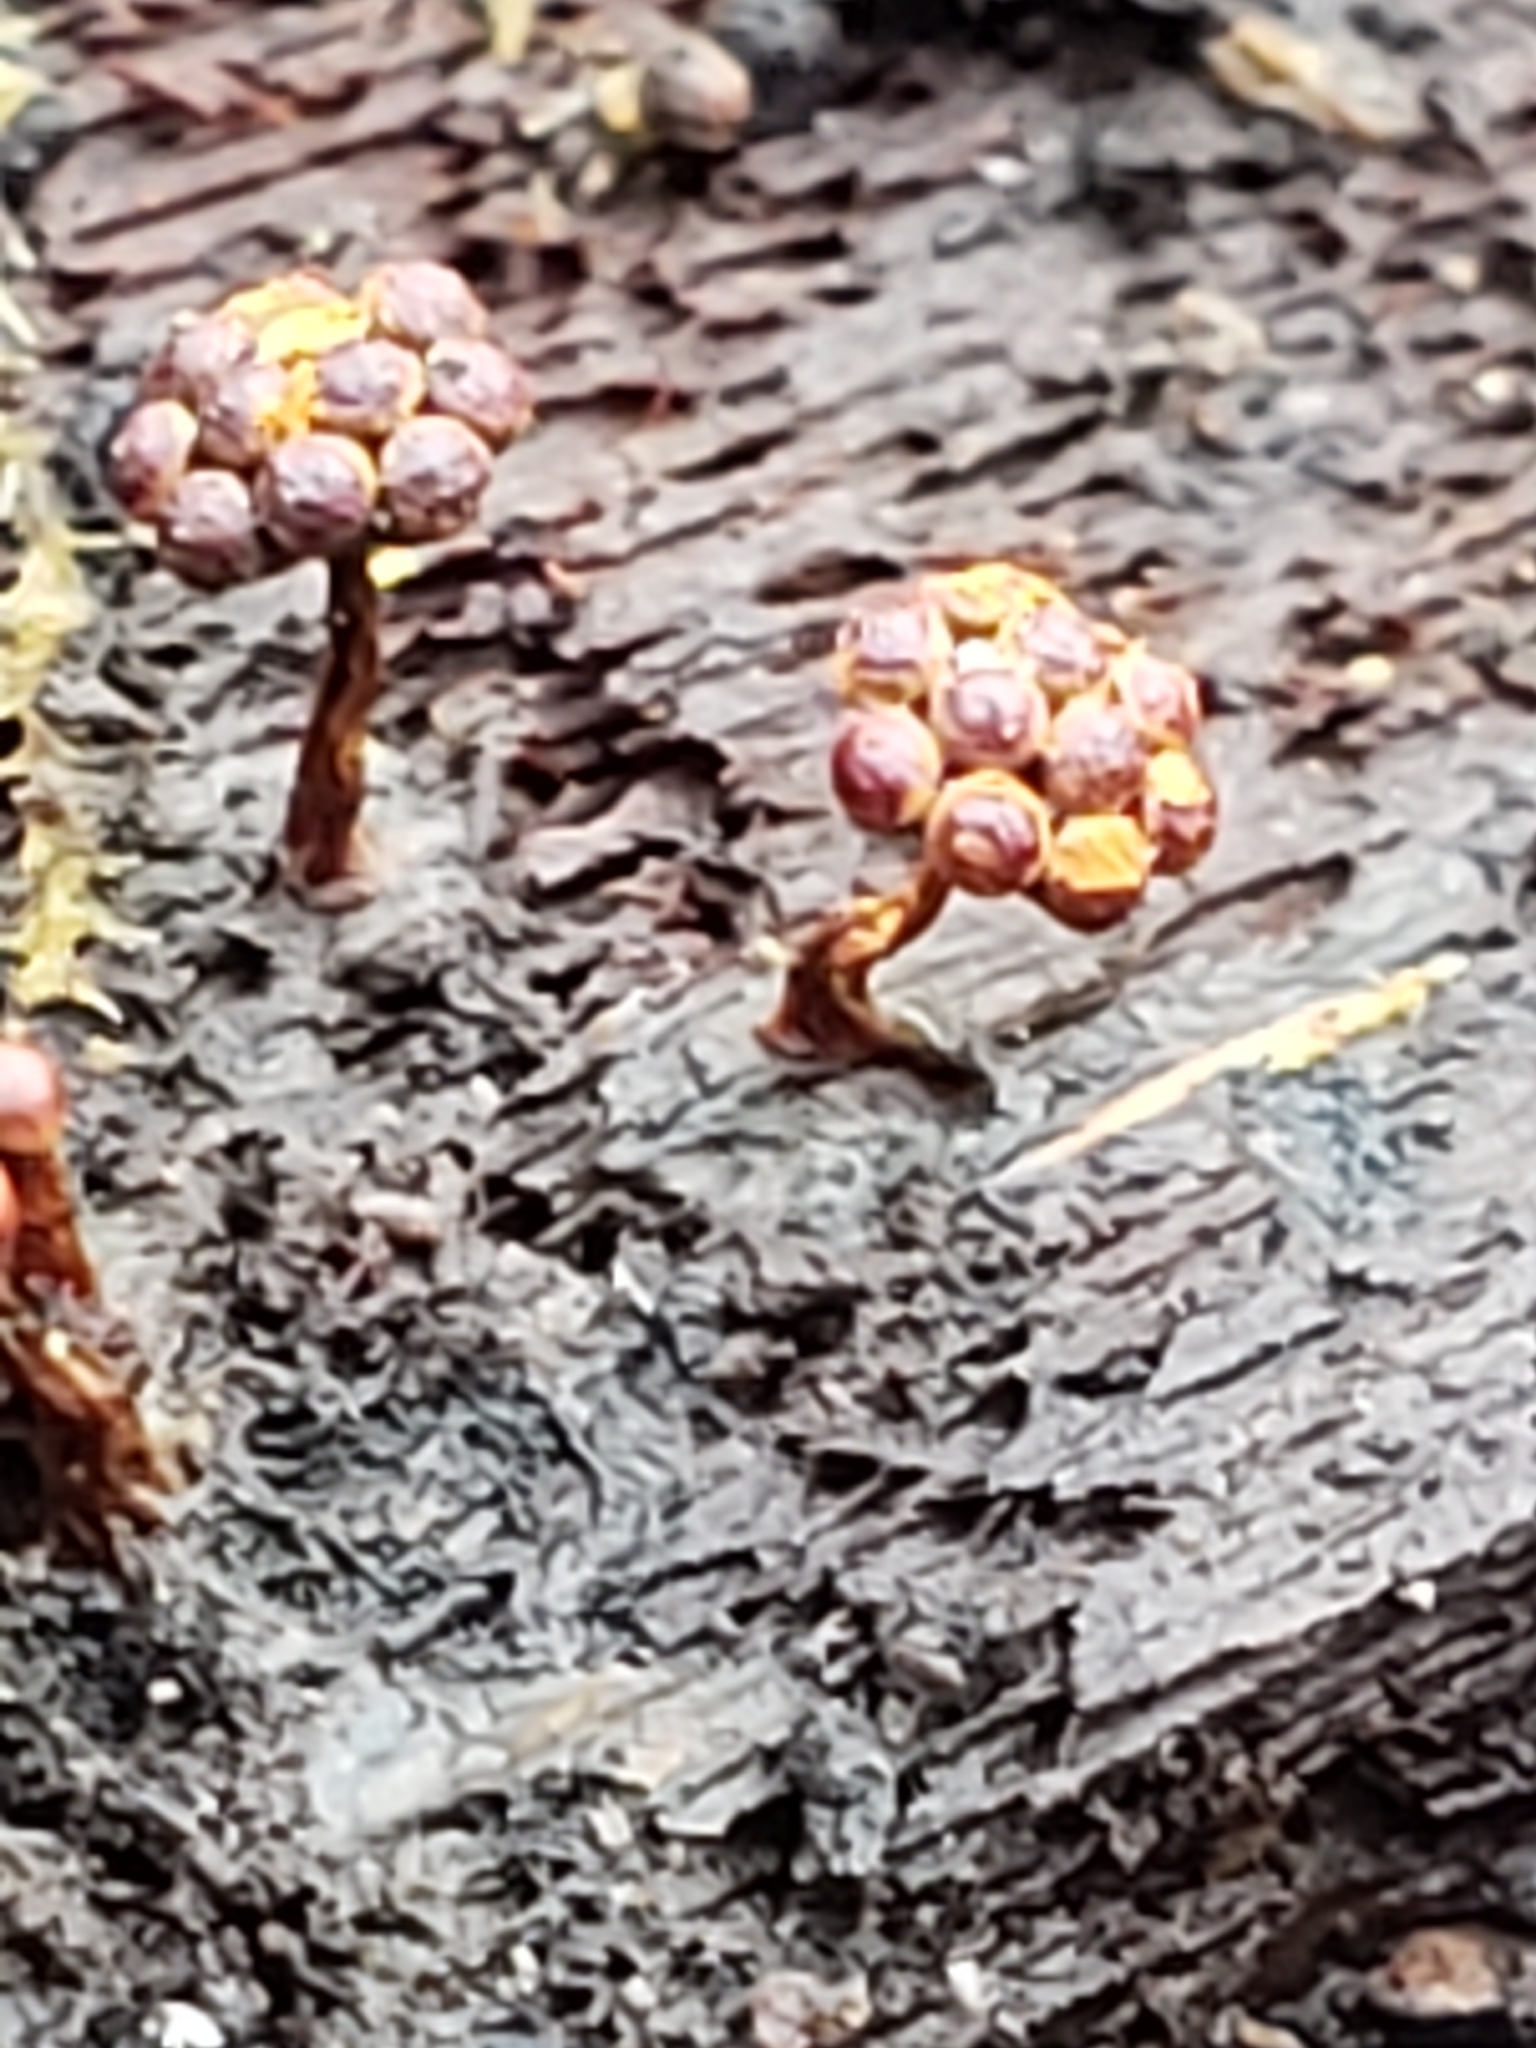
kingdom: Protozoa
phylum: Mycetozoa
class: Myxomycetes
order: Trichiales
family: Trichiaceae
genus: Metatrichia
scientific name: Metatrichia vesparia
